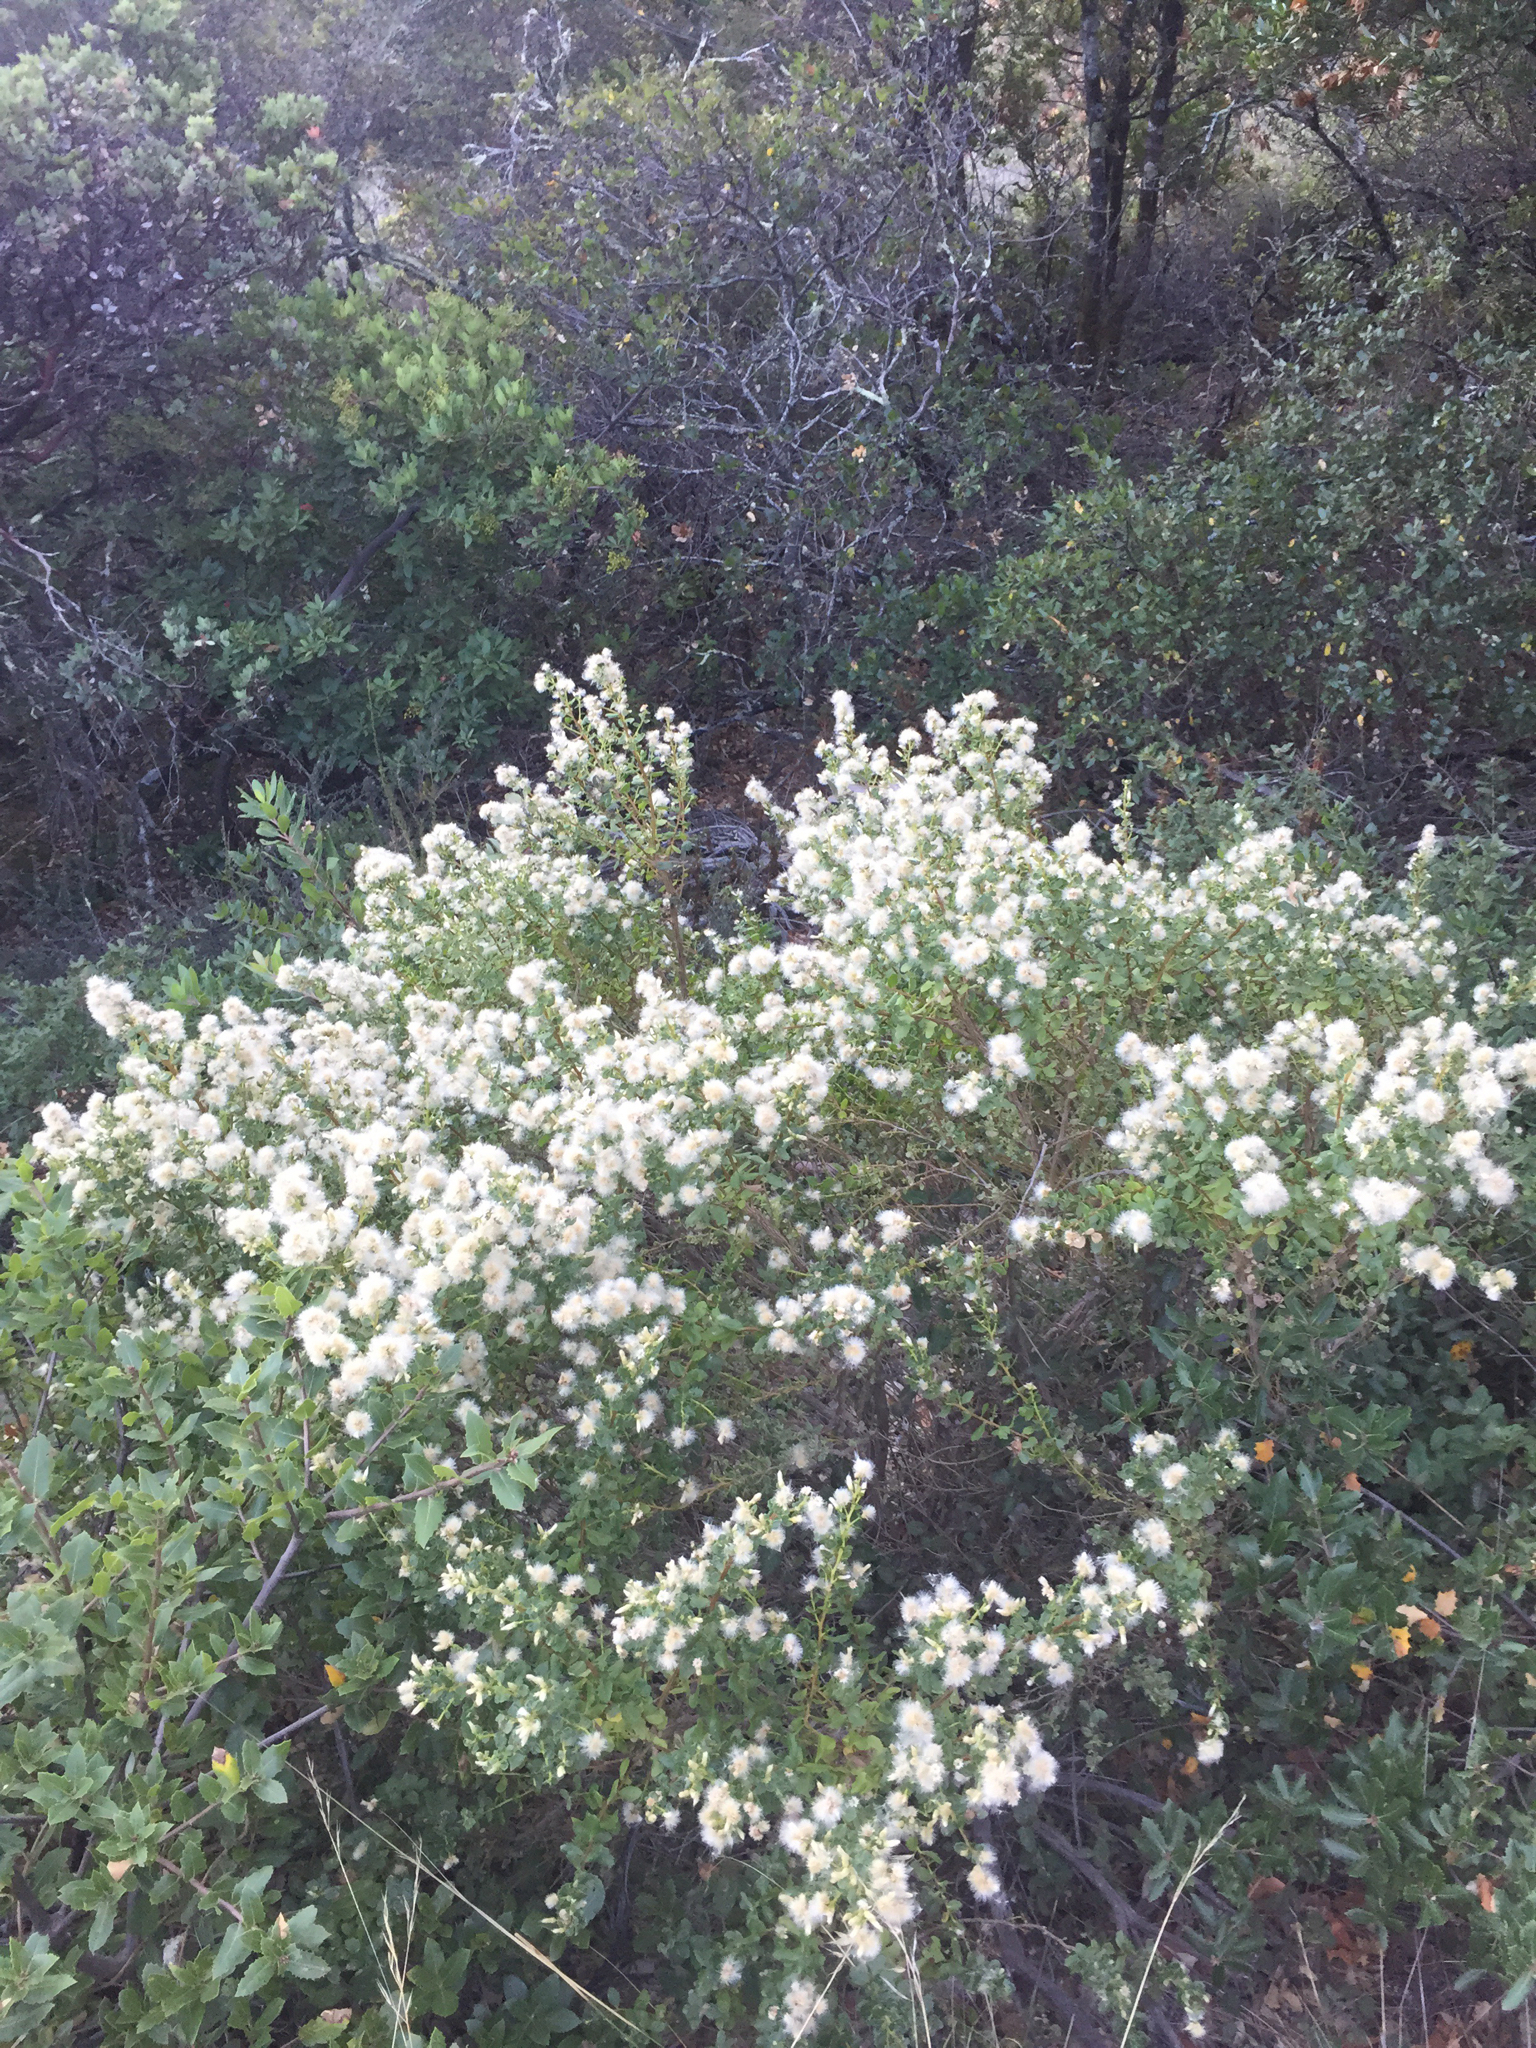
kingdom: Plantae
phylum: Tracheophyta
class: Magnoliopsida
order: Asterales
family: Asteraceae
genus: Baccharis
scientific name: Baccharis pilularis
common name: Coyotebrush
